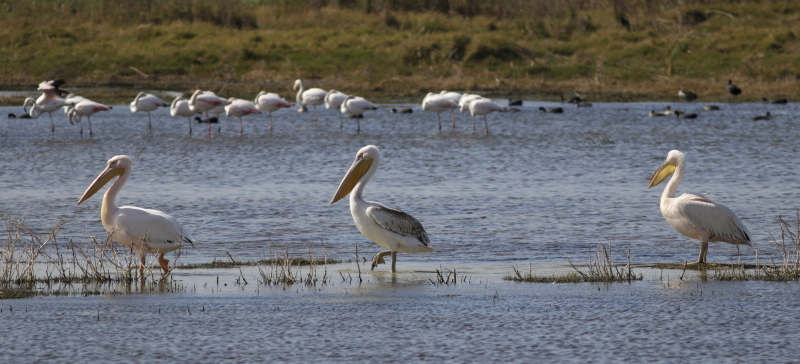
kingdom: Animalia
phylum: Chordata
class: Aves
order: Pelecaniformes
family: Pelecanidae
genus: Pelecanus
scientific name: Pelecanus onocrotalus
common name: Great white pelican
